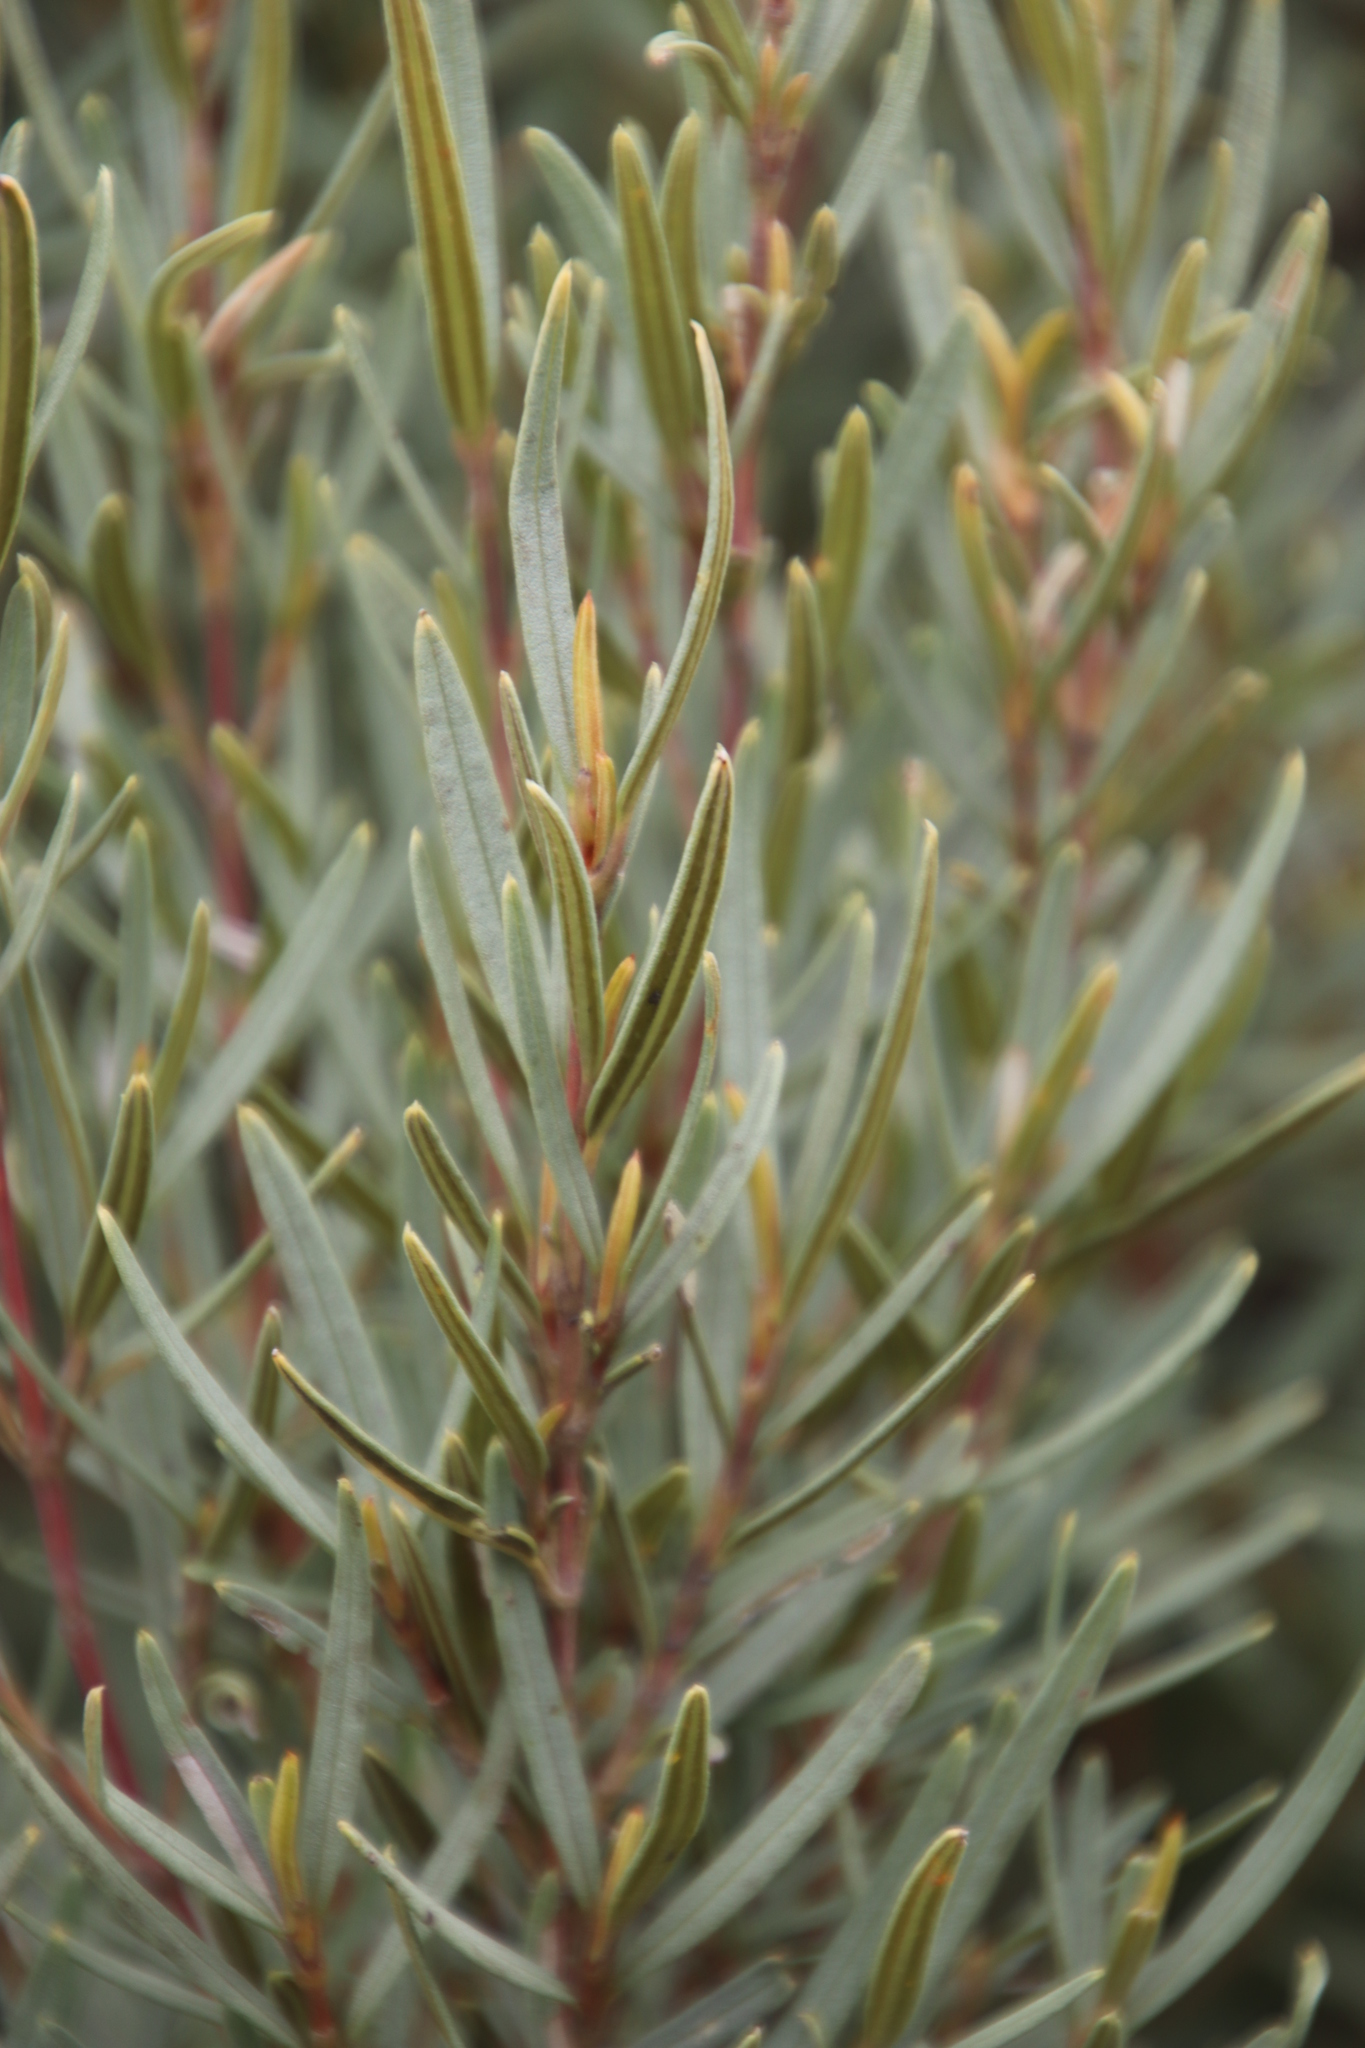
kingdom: Plantae
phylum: Tracheophyta
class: Magnoliopsida
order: Cornales
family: Grubbiaceae
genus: Grubbia
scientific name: Grubbia tomentosa
